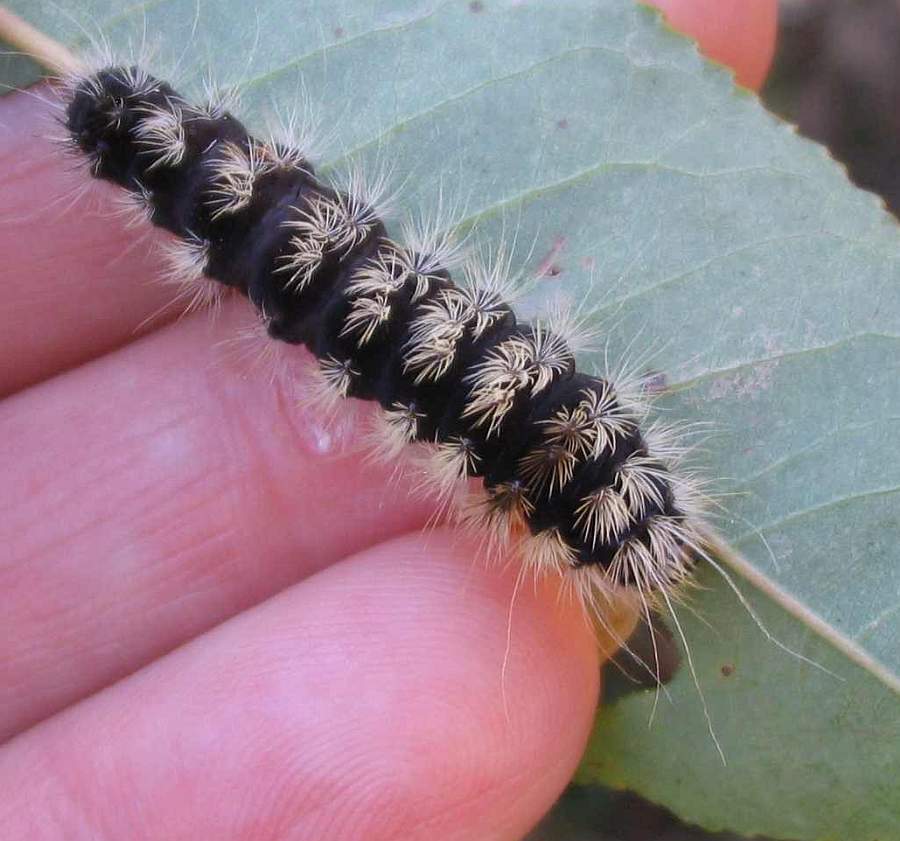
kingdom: Animalia
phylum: Arthropoda
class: Insecta
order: Lepidoptera
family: Noctuidae
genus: Acronicta
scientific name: Acronicta impressa
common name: Impressed dagger
